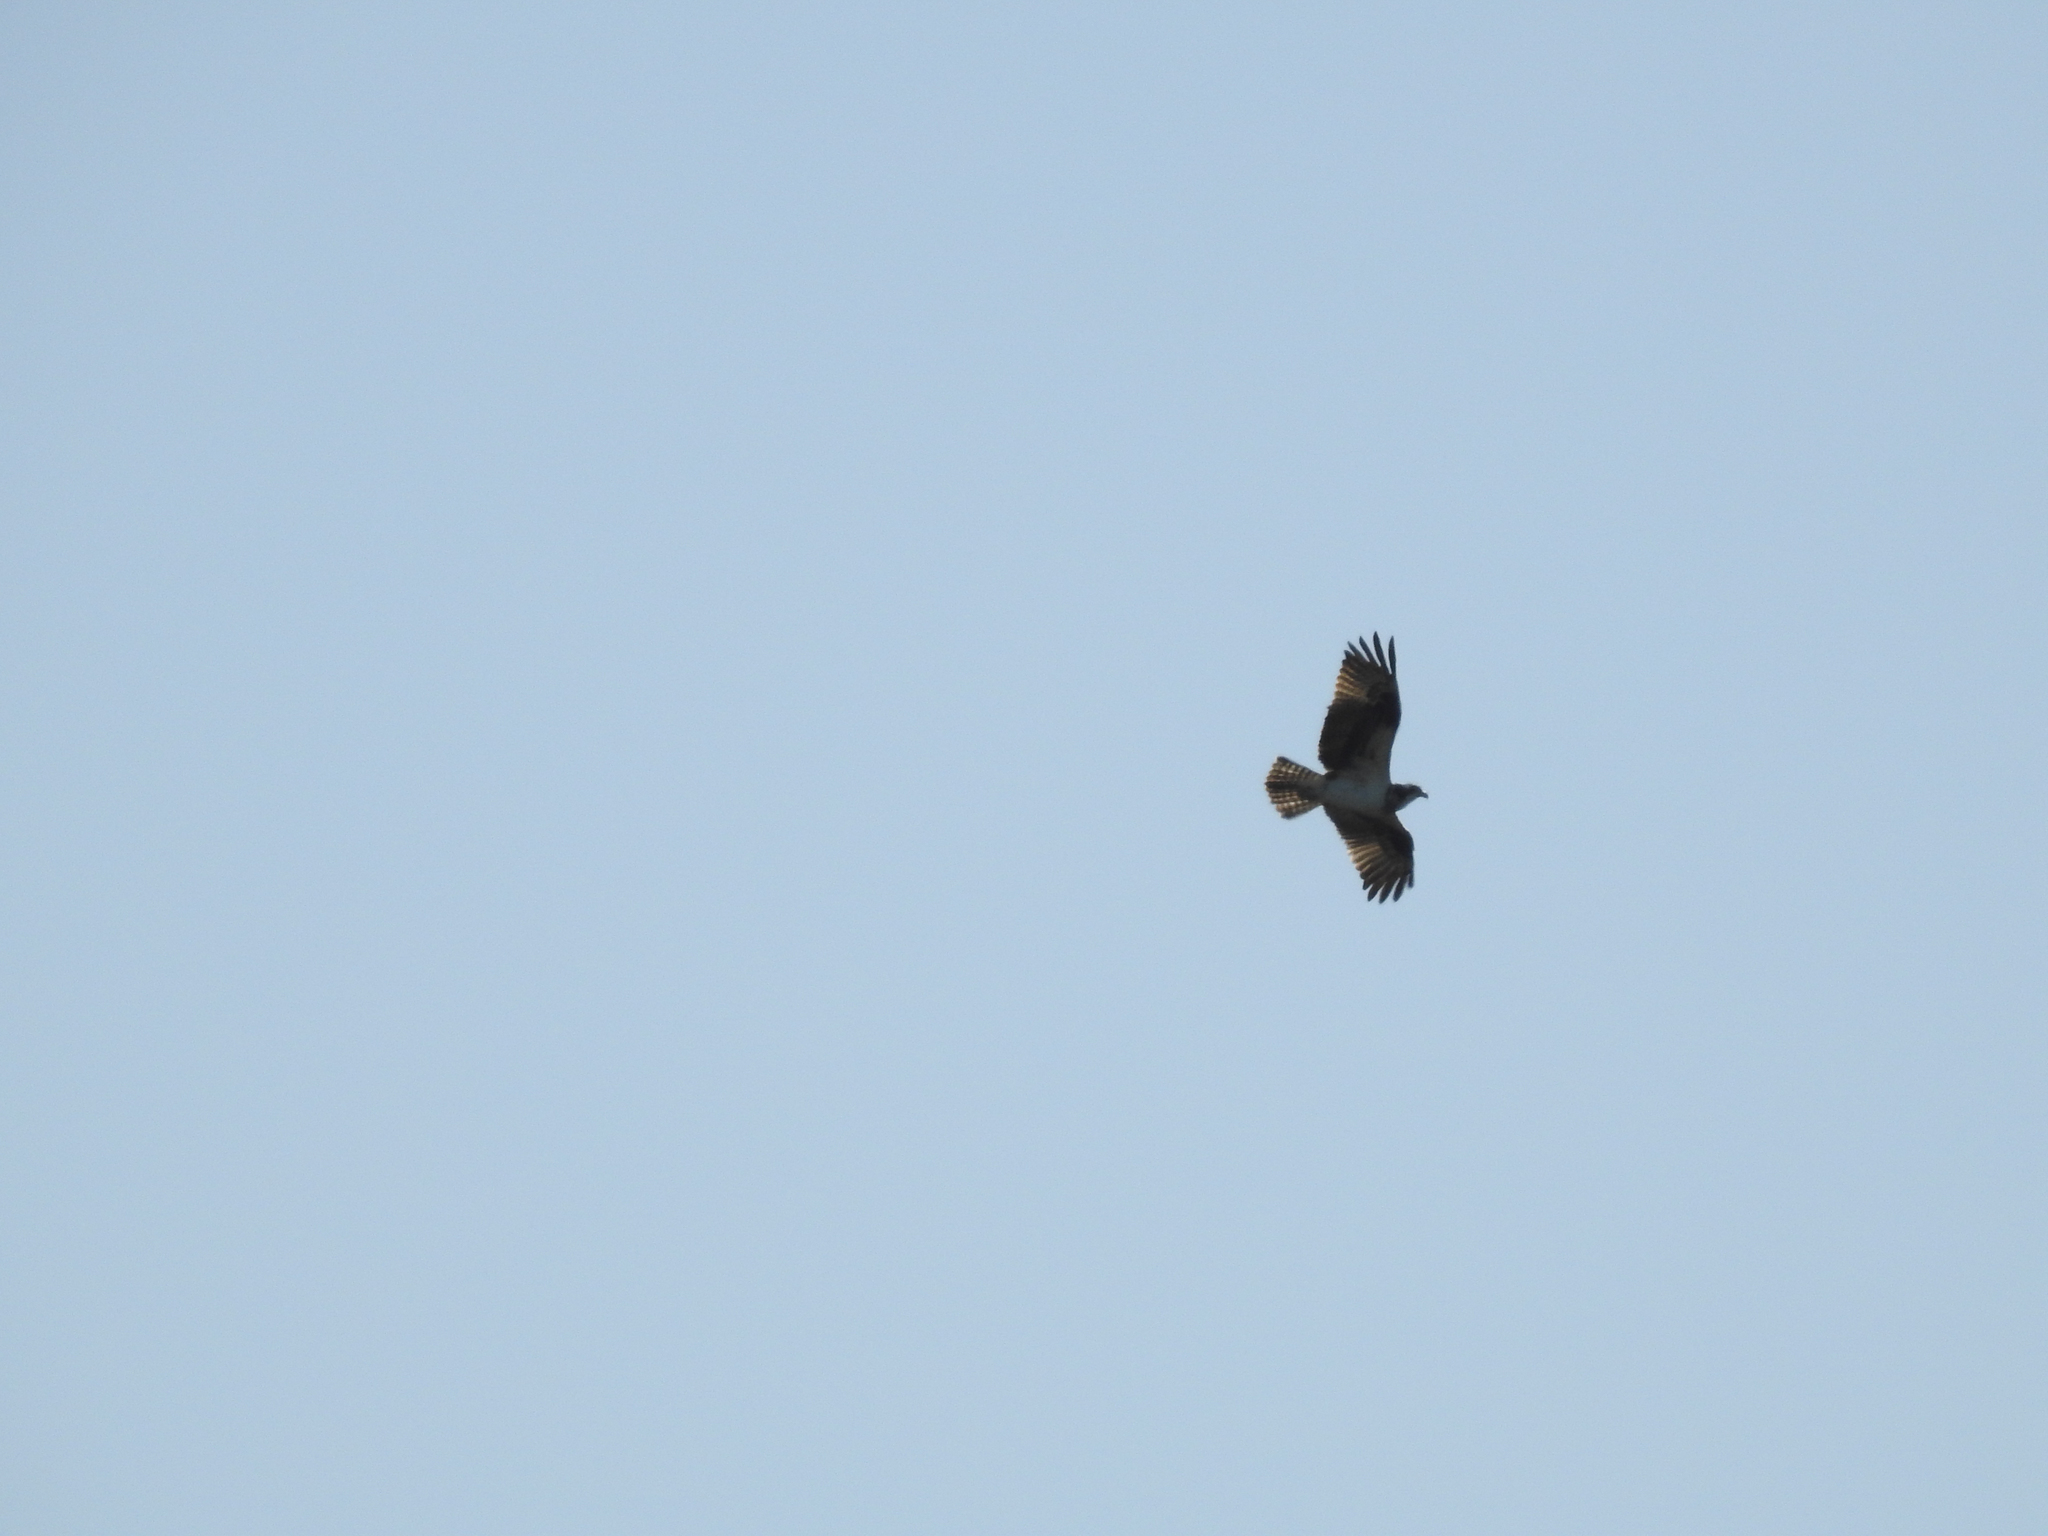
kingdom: Animalia
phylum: Chordata
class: Aves
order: Accipitriformes
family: Pandionidae
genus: Pandion
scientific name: Pandion haliaetus
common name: Osprey
